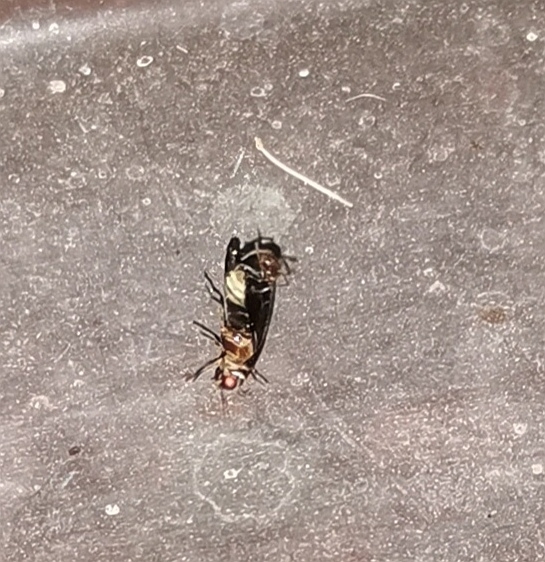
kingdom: Animalia
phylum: Arthropoda
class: Insecta
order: Coleoptera
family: Lampyridae
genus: Lamprohiza
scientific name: Lamprohiza splendidula
